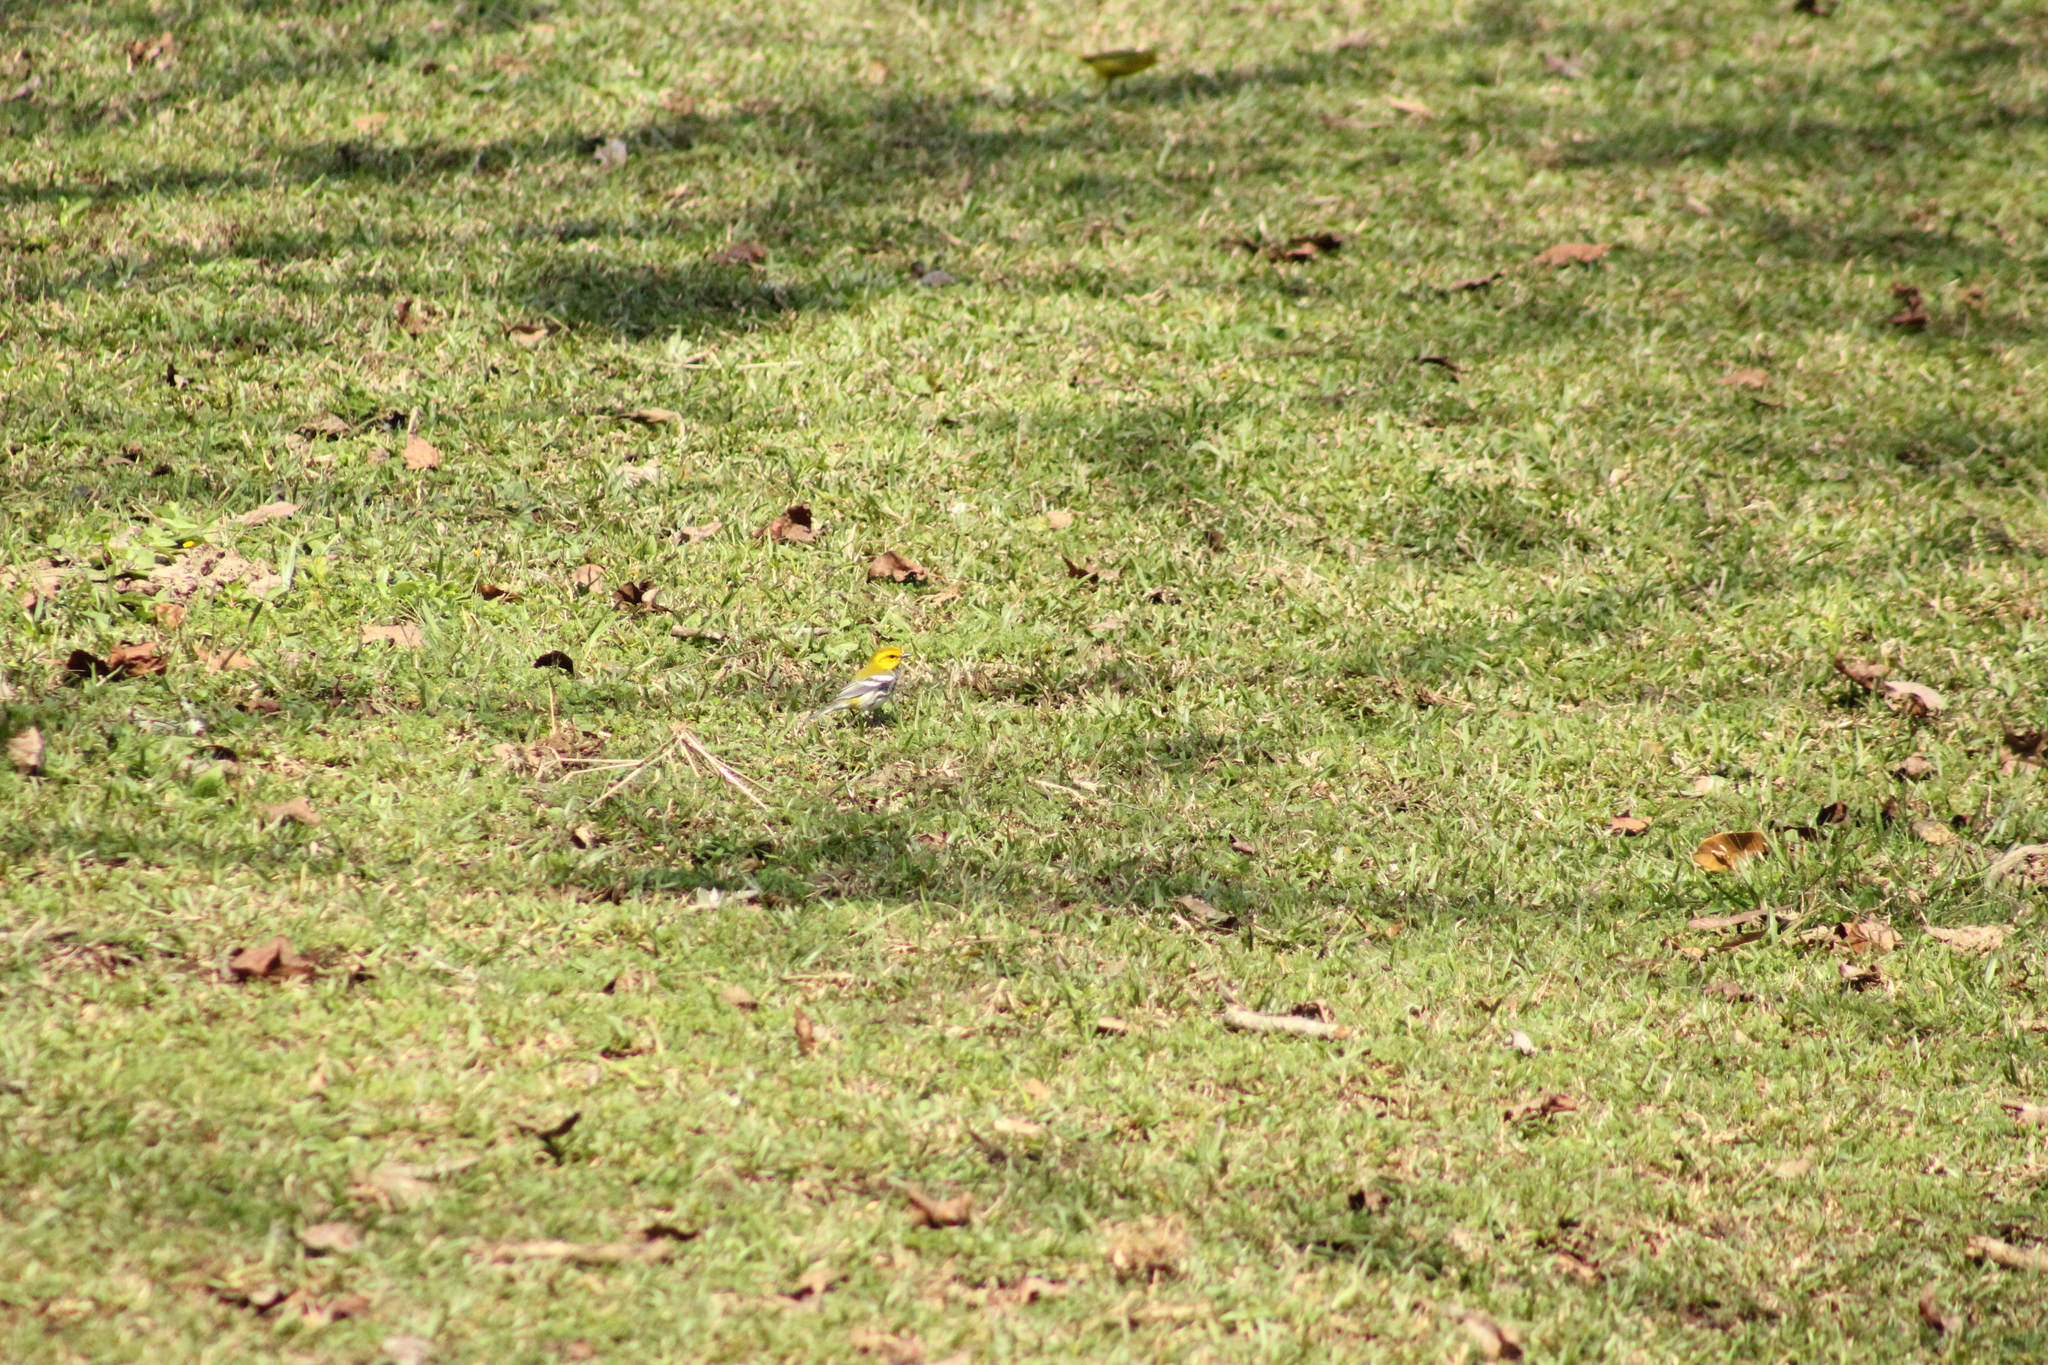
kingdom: Animalia
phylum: Chordata
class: Aves
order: Passeriformes
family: Parulidae
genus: Setophaga
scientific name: Setophaga virens
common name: Black-throated green warbler
